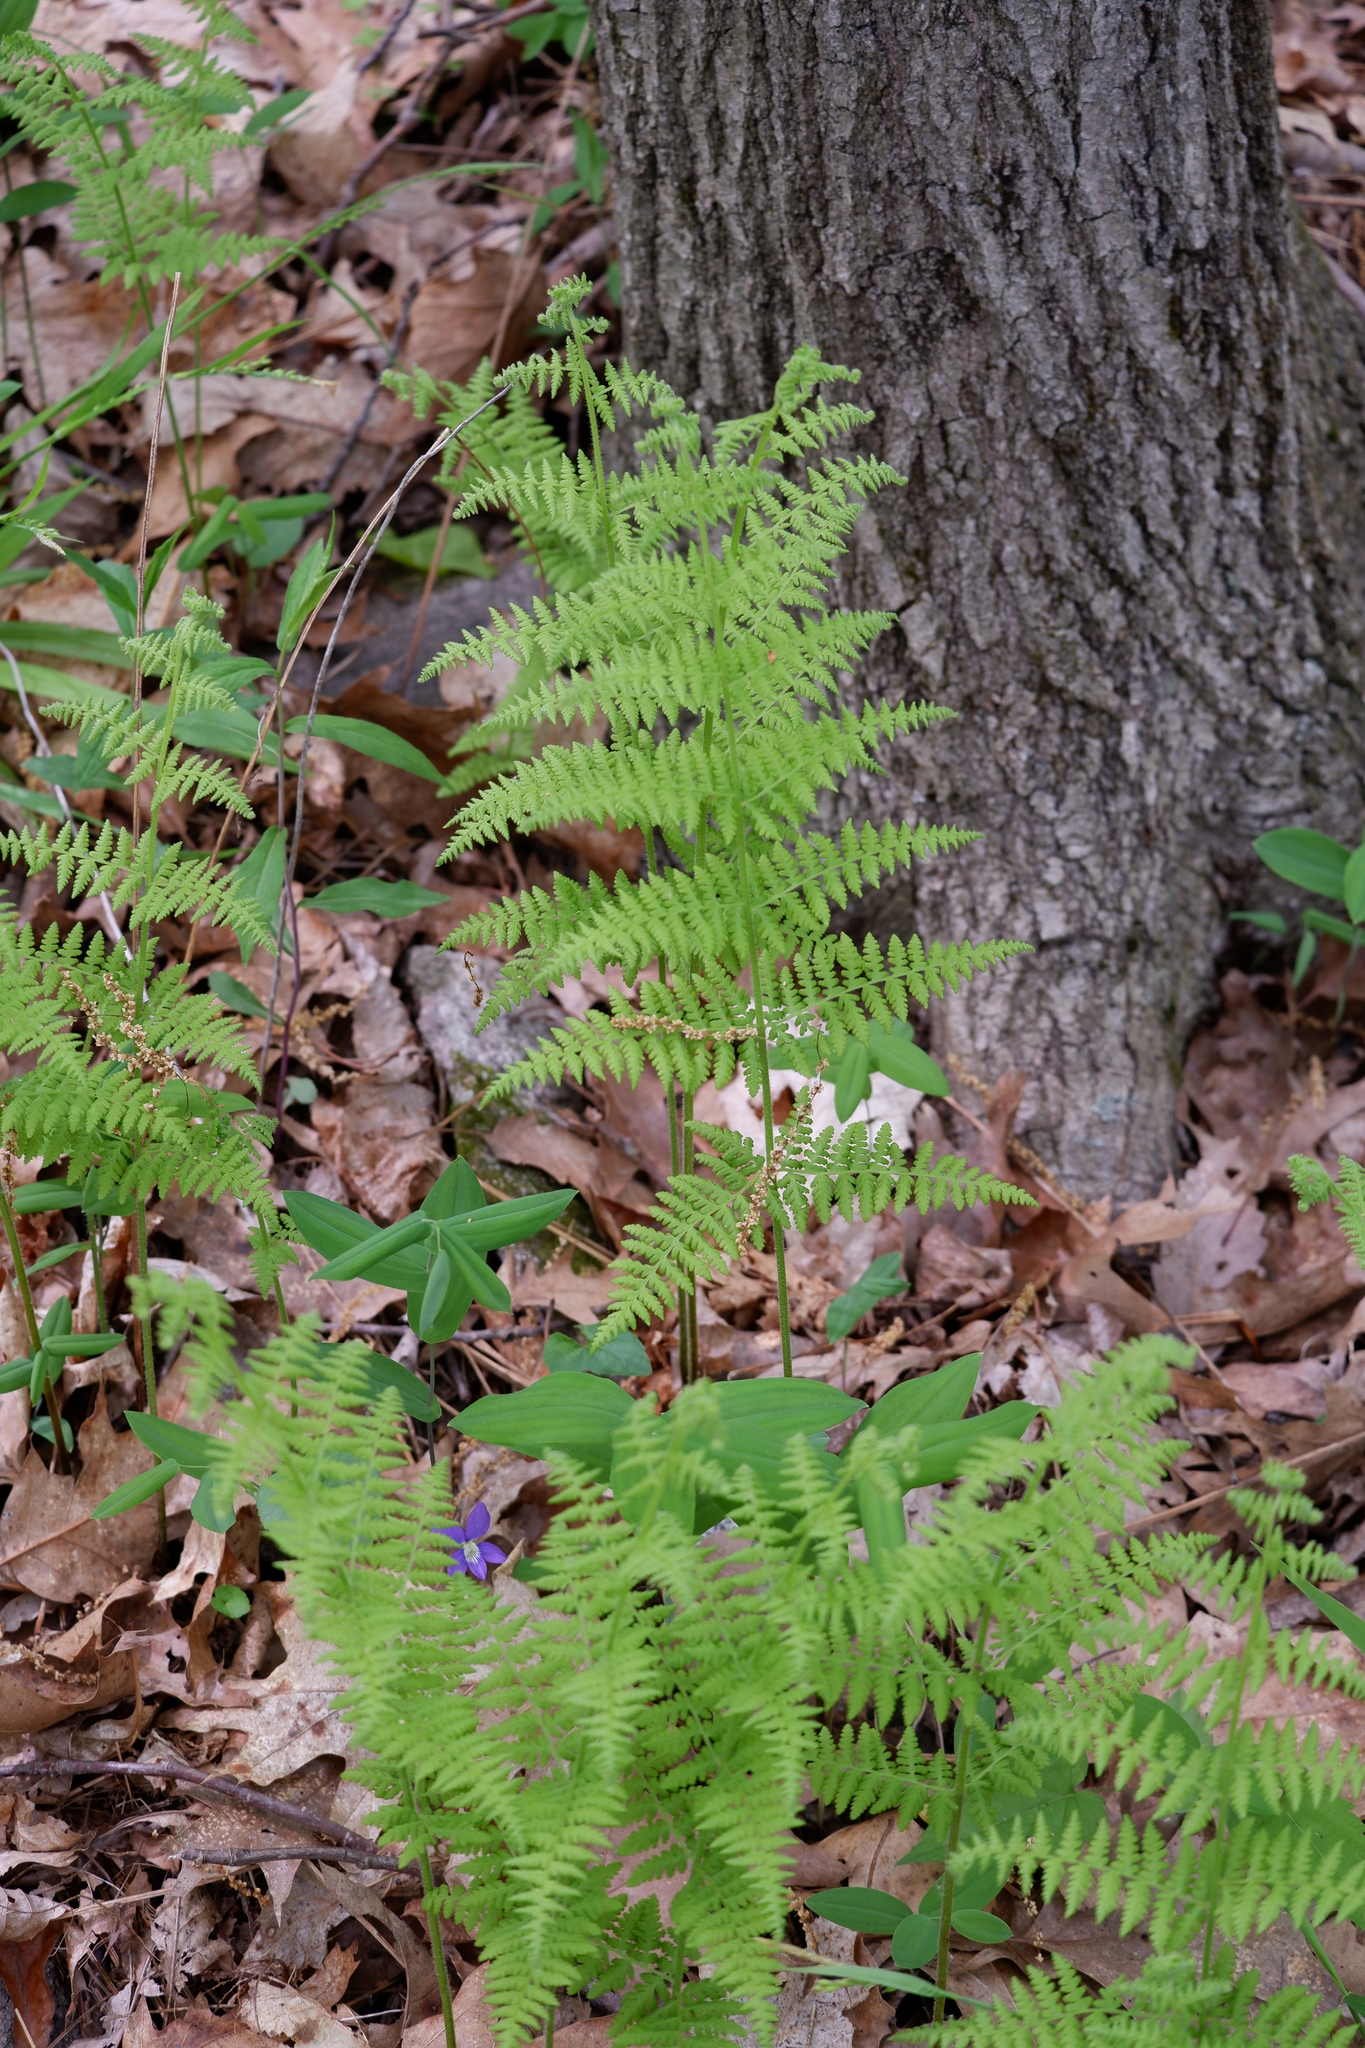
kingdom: Plantae
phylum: Tracheophyta
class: Polypodiopsida
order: Polypodiales
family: Dennstaedtiaceae
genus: Sitobolium
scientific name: Sitobolium punctilobum
